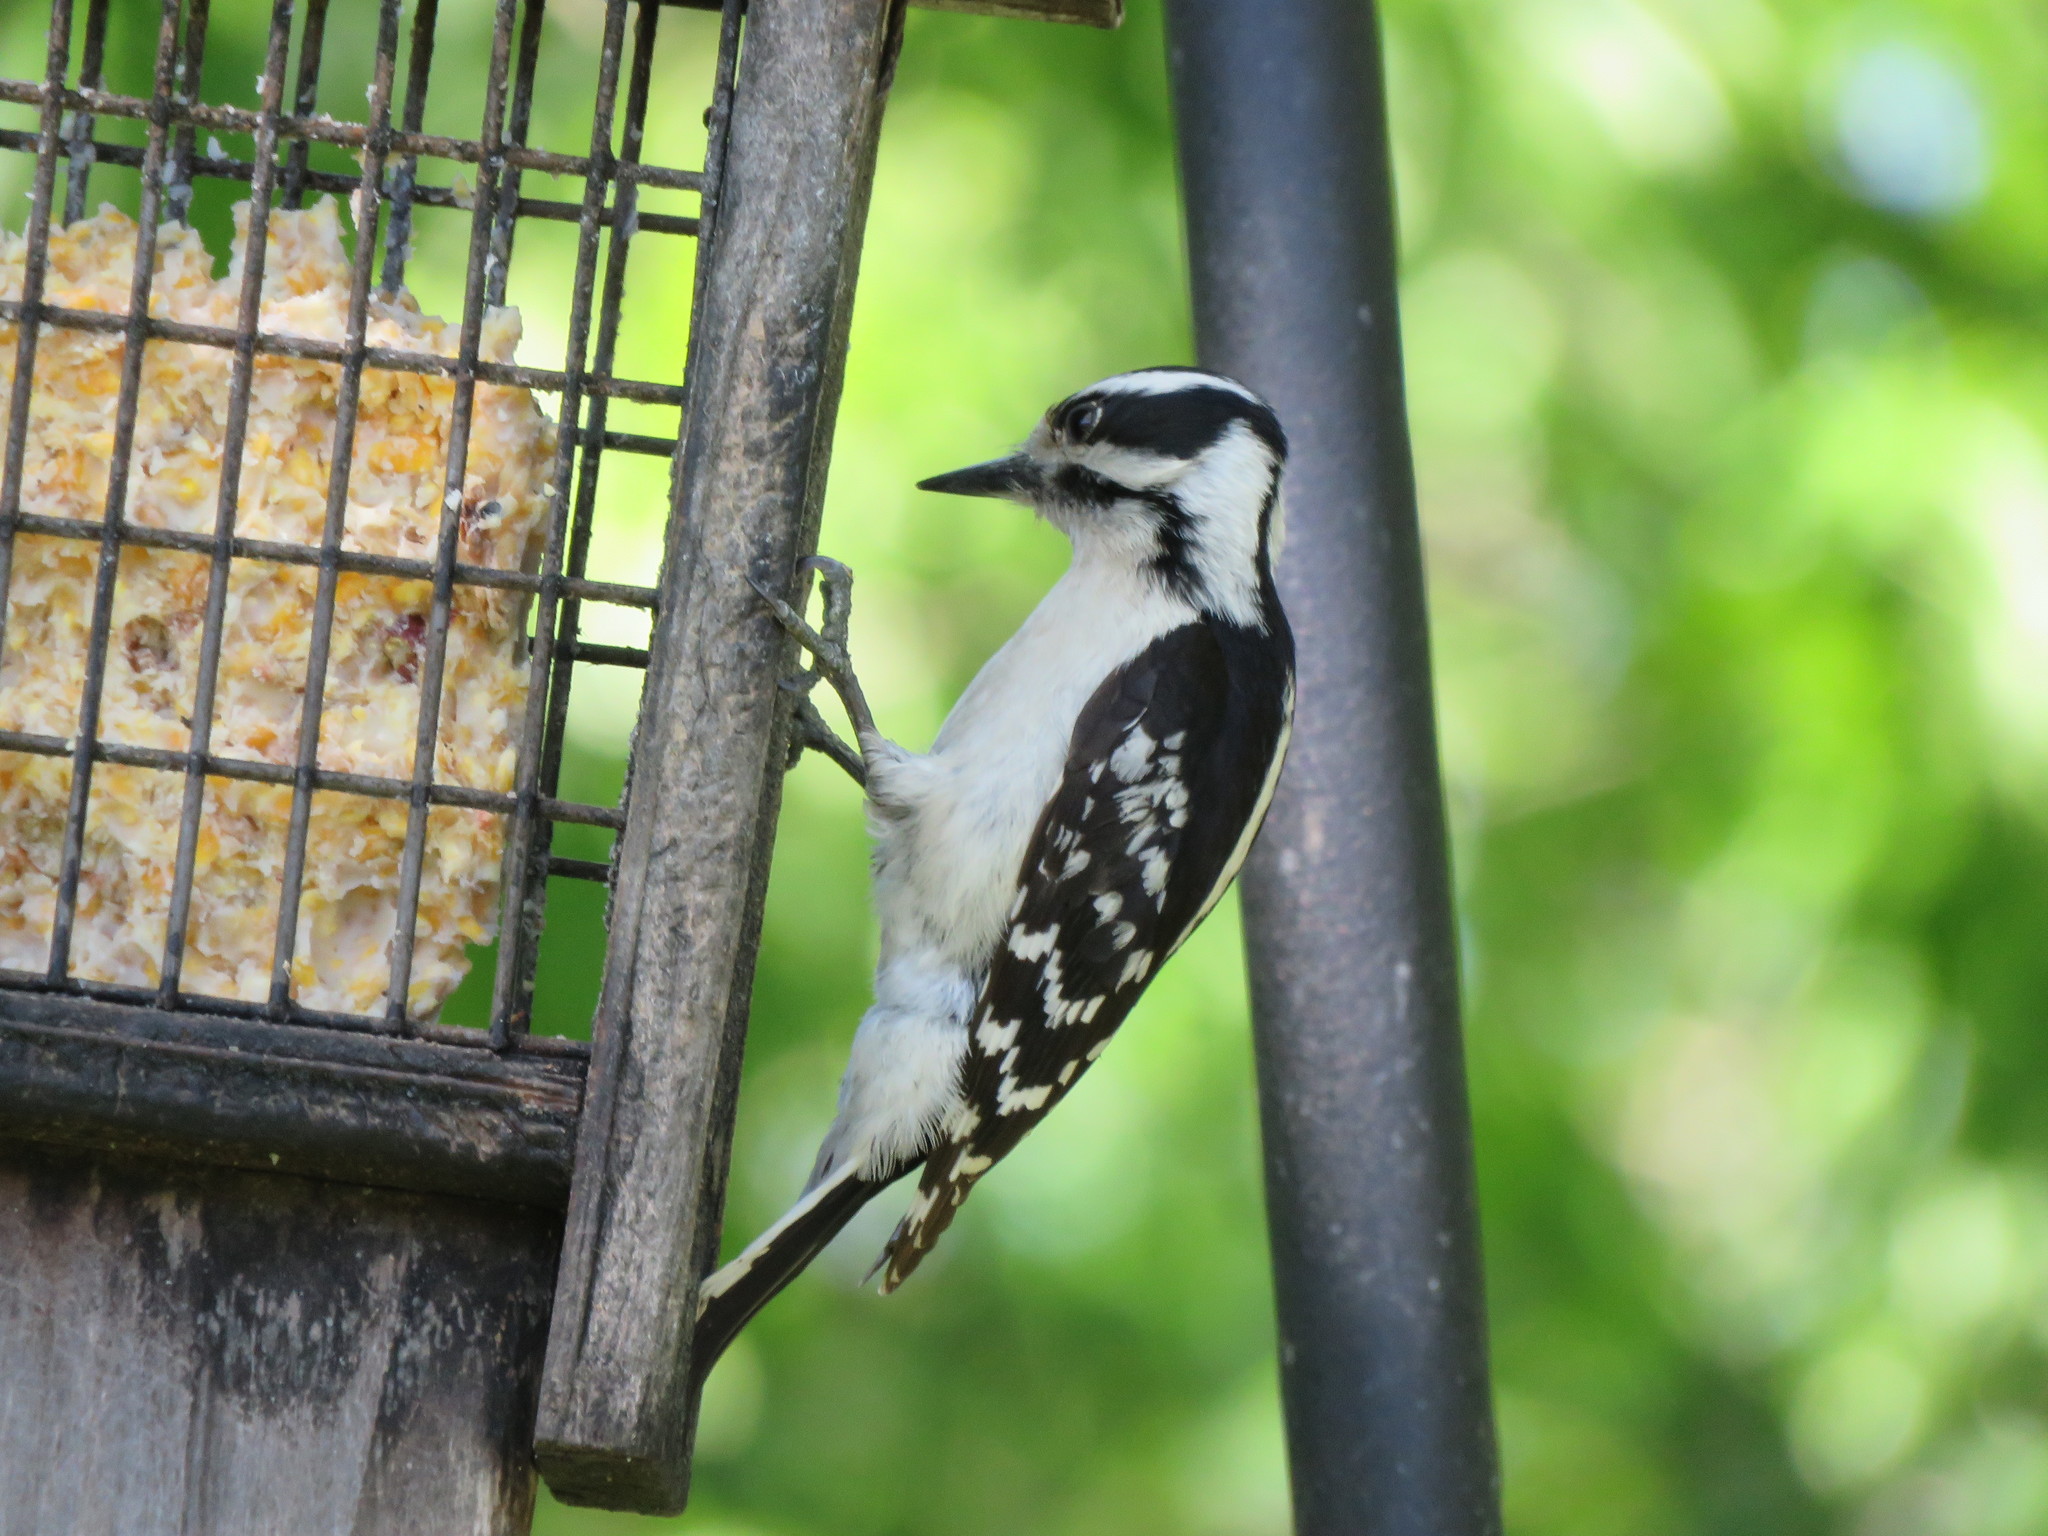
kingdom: Animalia
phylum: Chordata
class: Aves
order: Piciformes
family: Picidae
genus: Dryobates
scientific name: Dryobates pubescens
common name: Downy woodpecker
